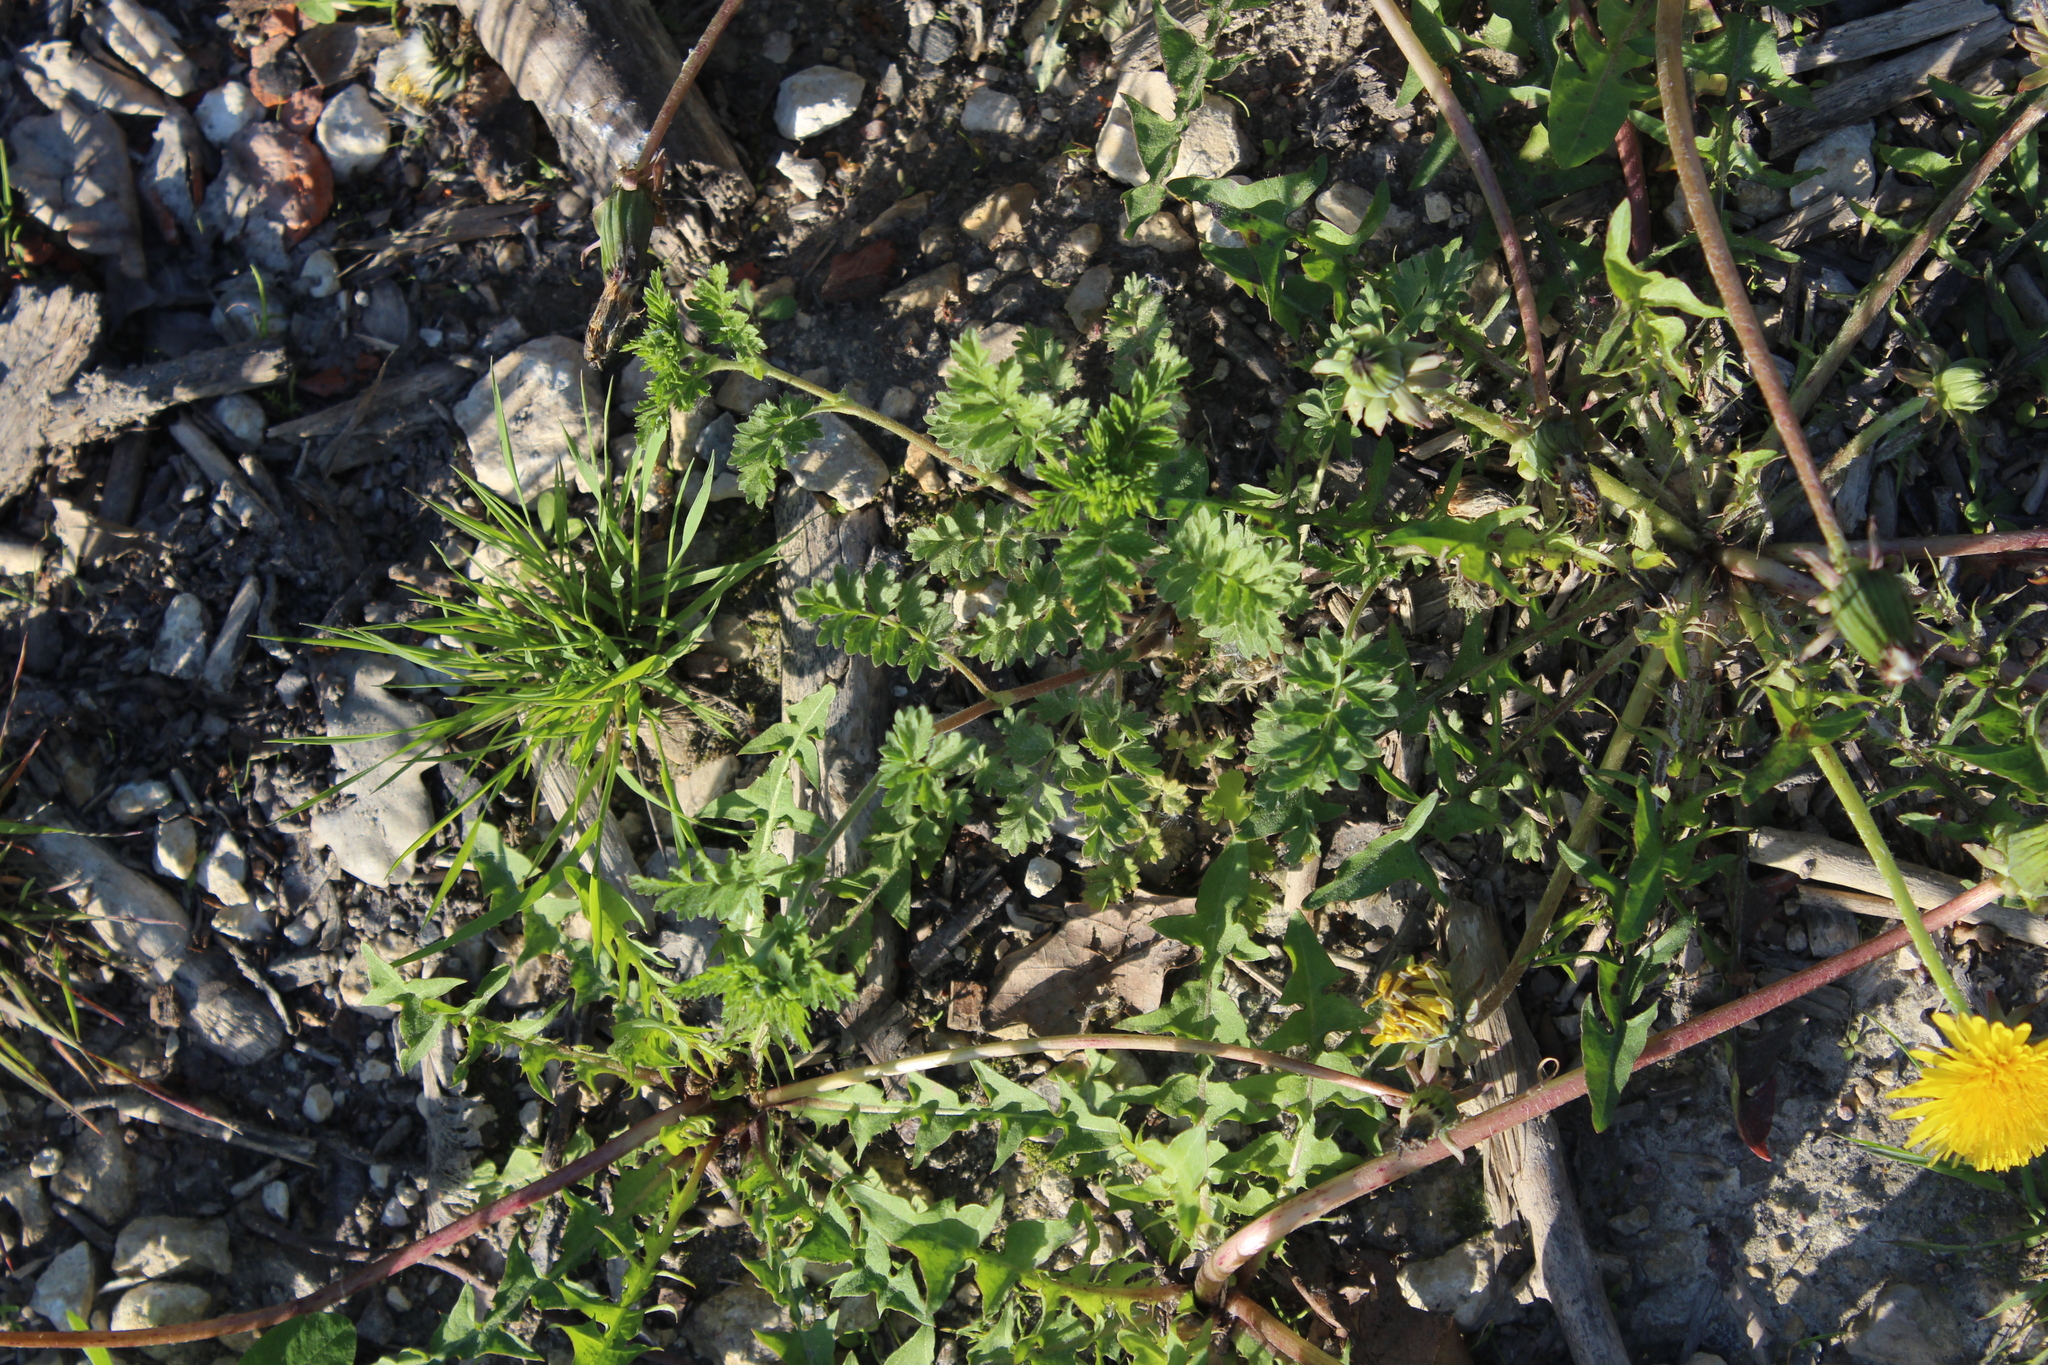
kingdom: Plantae
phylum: Tracheophyta
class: Magnoliopsida
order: Rosales
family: Rosaceae
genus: Potentilla
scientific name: Potentilla supina
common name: Prostrate cinquefoil
